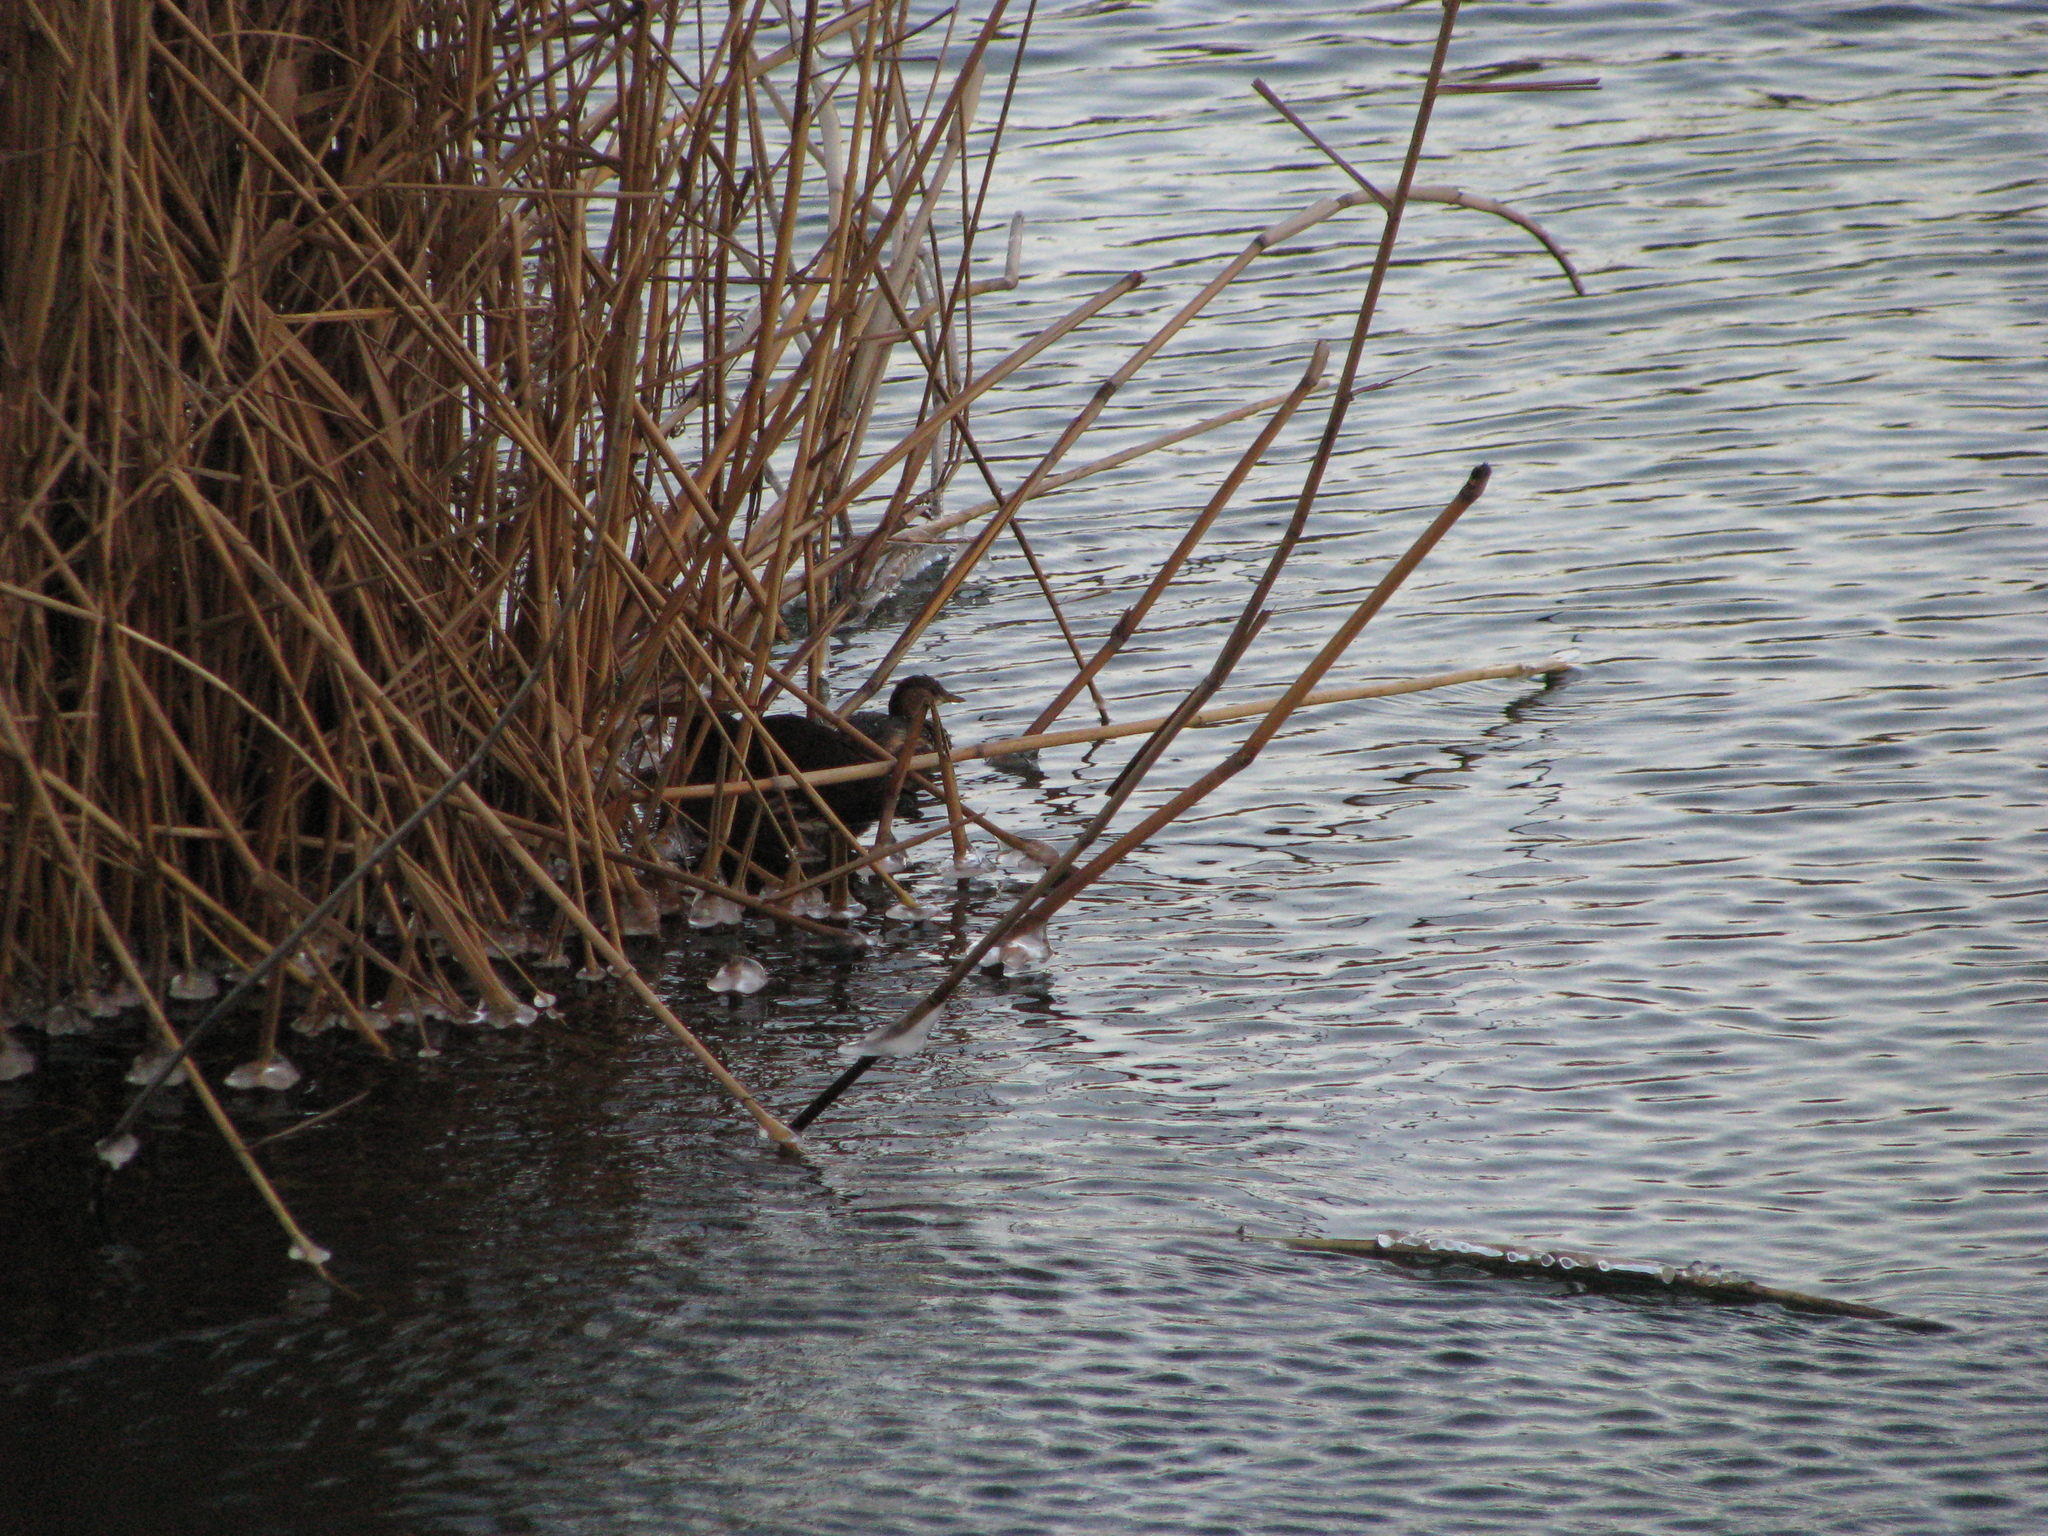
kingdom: Animalia
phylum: Chordata
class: Aves
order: Podicipediformes
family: Podicipedidae
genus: Tachybaptus
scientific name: Tachybaptus ruficollis
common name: Little grebe
